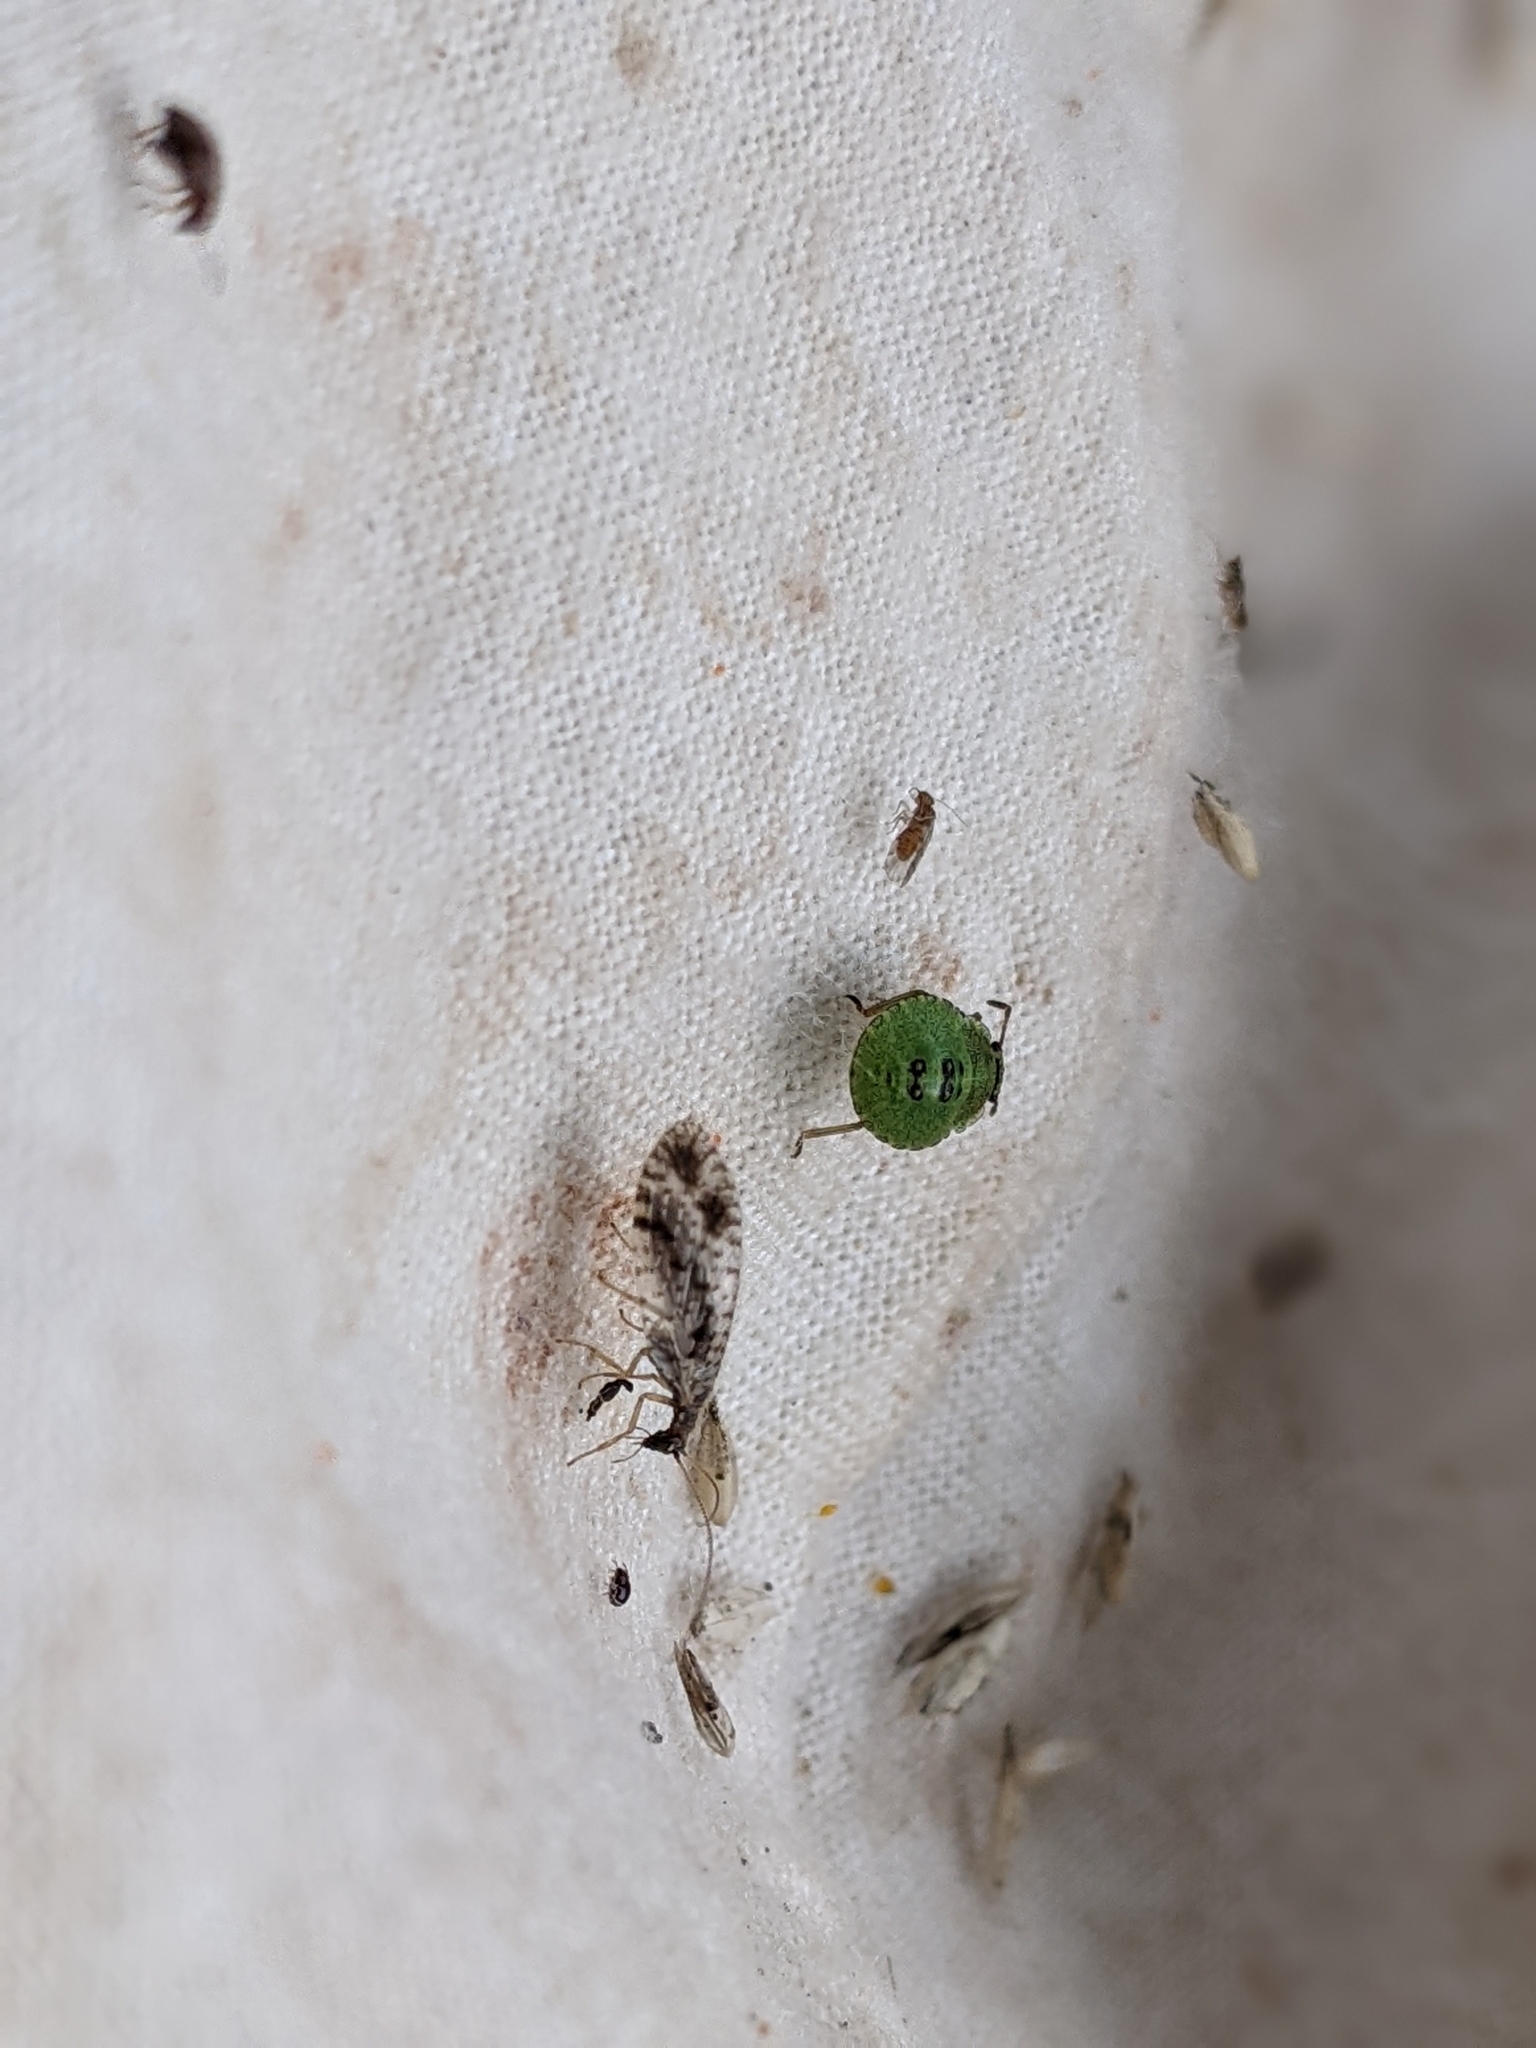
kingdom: Animalia
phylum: Arthropoda
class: Insecta
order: Neuroptera
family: Hemerobiidae
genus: Micromus
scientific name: Micromus variegatus
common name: Brown lacewing
